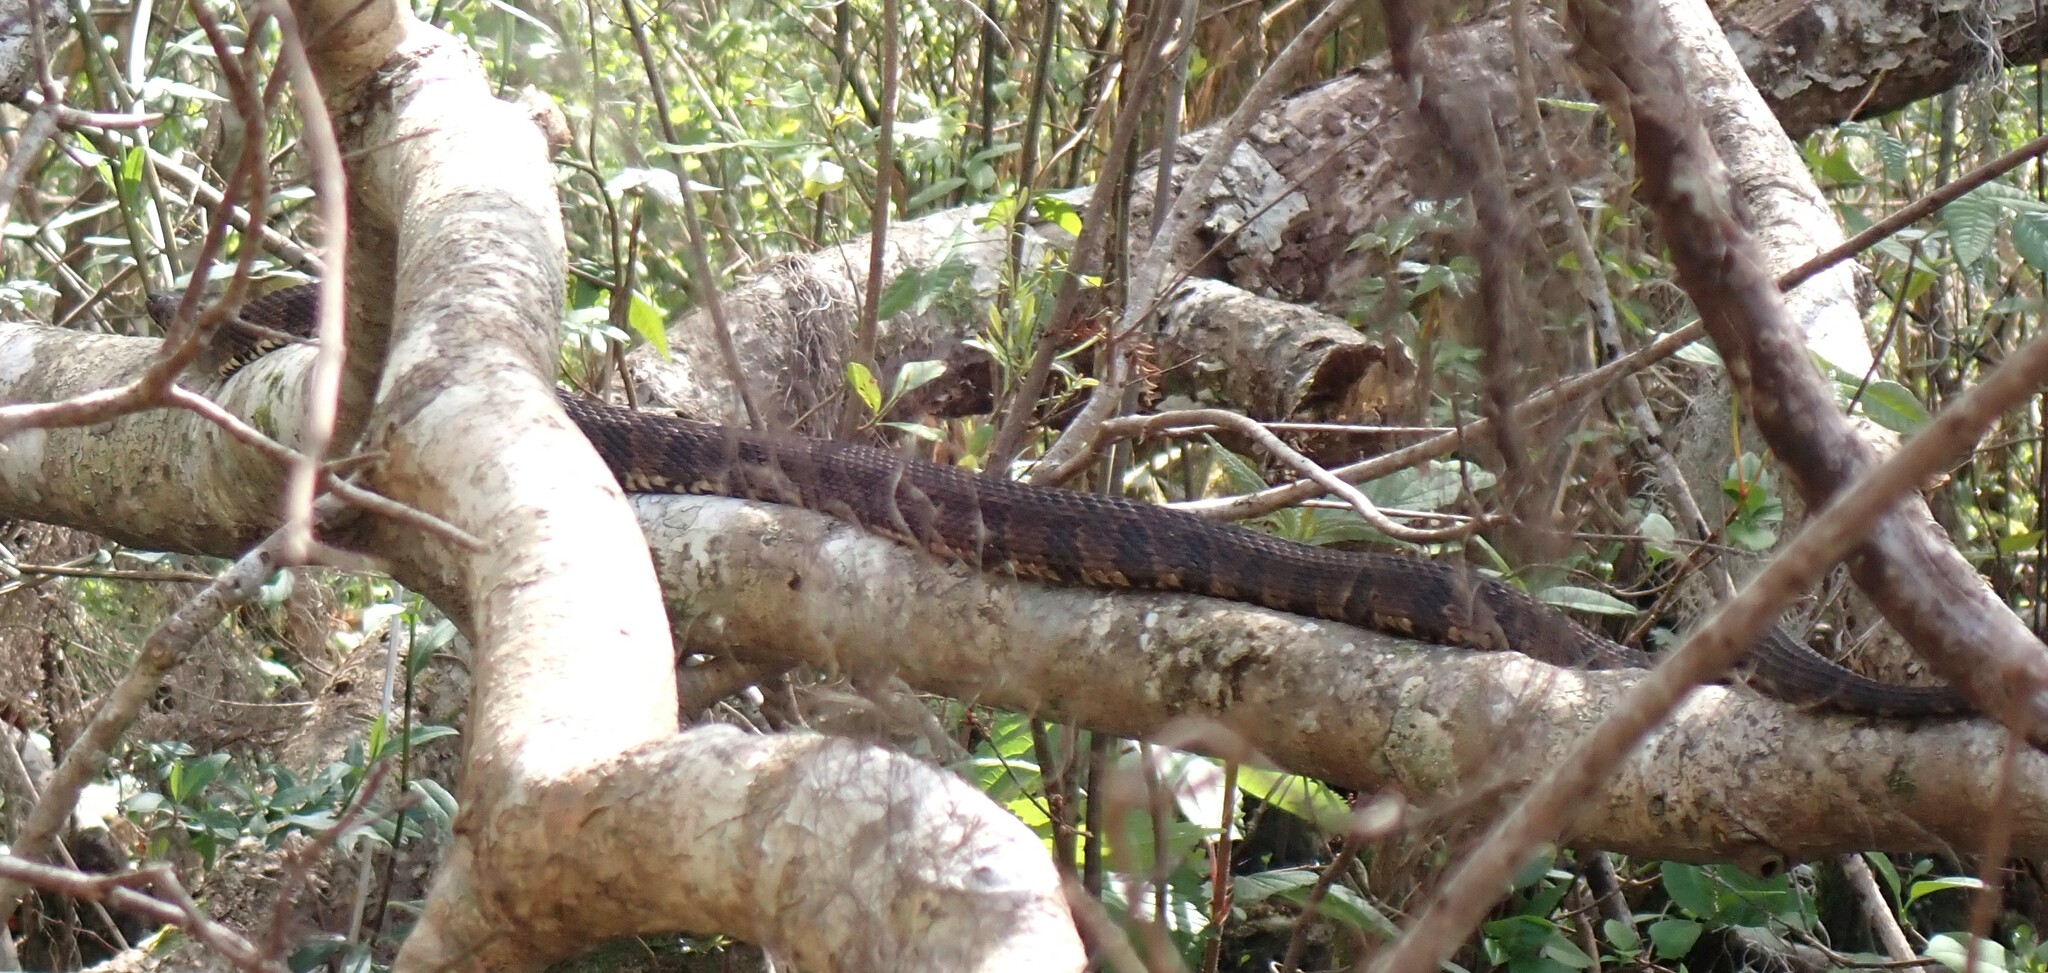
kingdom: Animalia
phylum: Chordata
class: Squamata
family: Colubridae
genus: Nerodia
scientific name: Nerodia taxispilota
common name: Brown water snake
